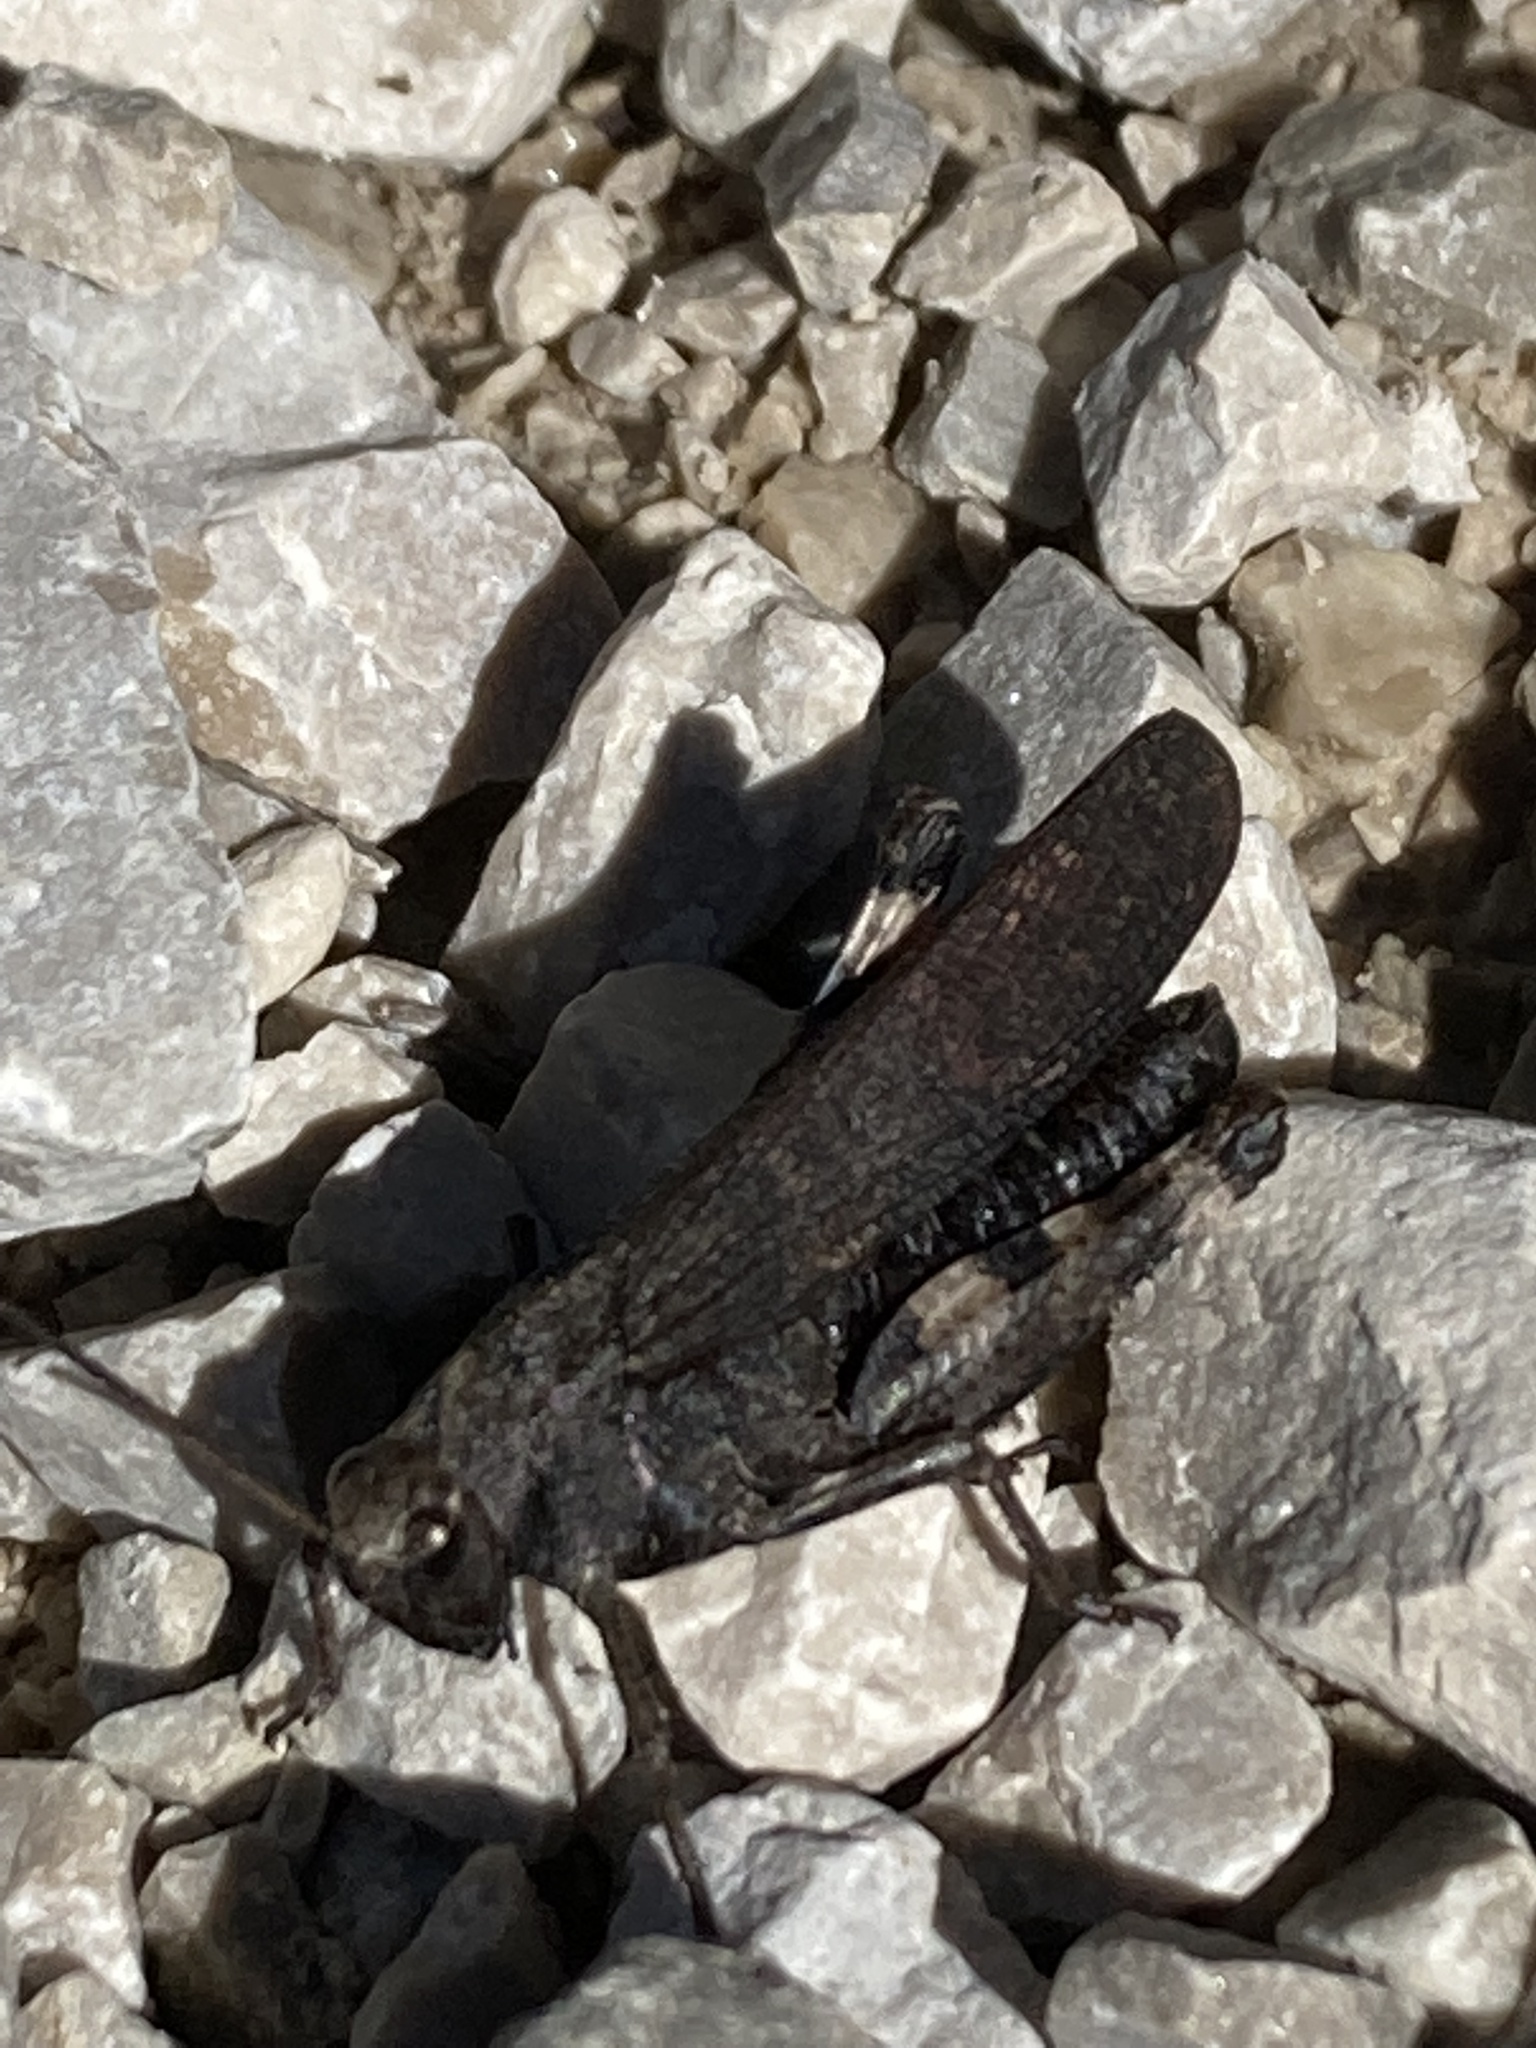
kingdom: Animalia
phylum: Arthropoda
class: Insecta
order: Orthoptera
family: Acrididae
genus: Psophus
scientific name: Psophus stridulus
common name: Rattle grasshopper
